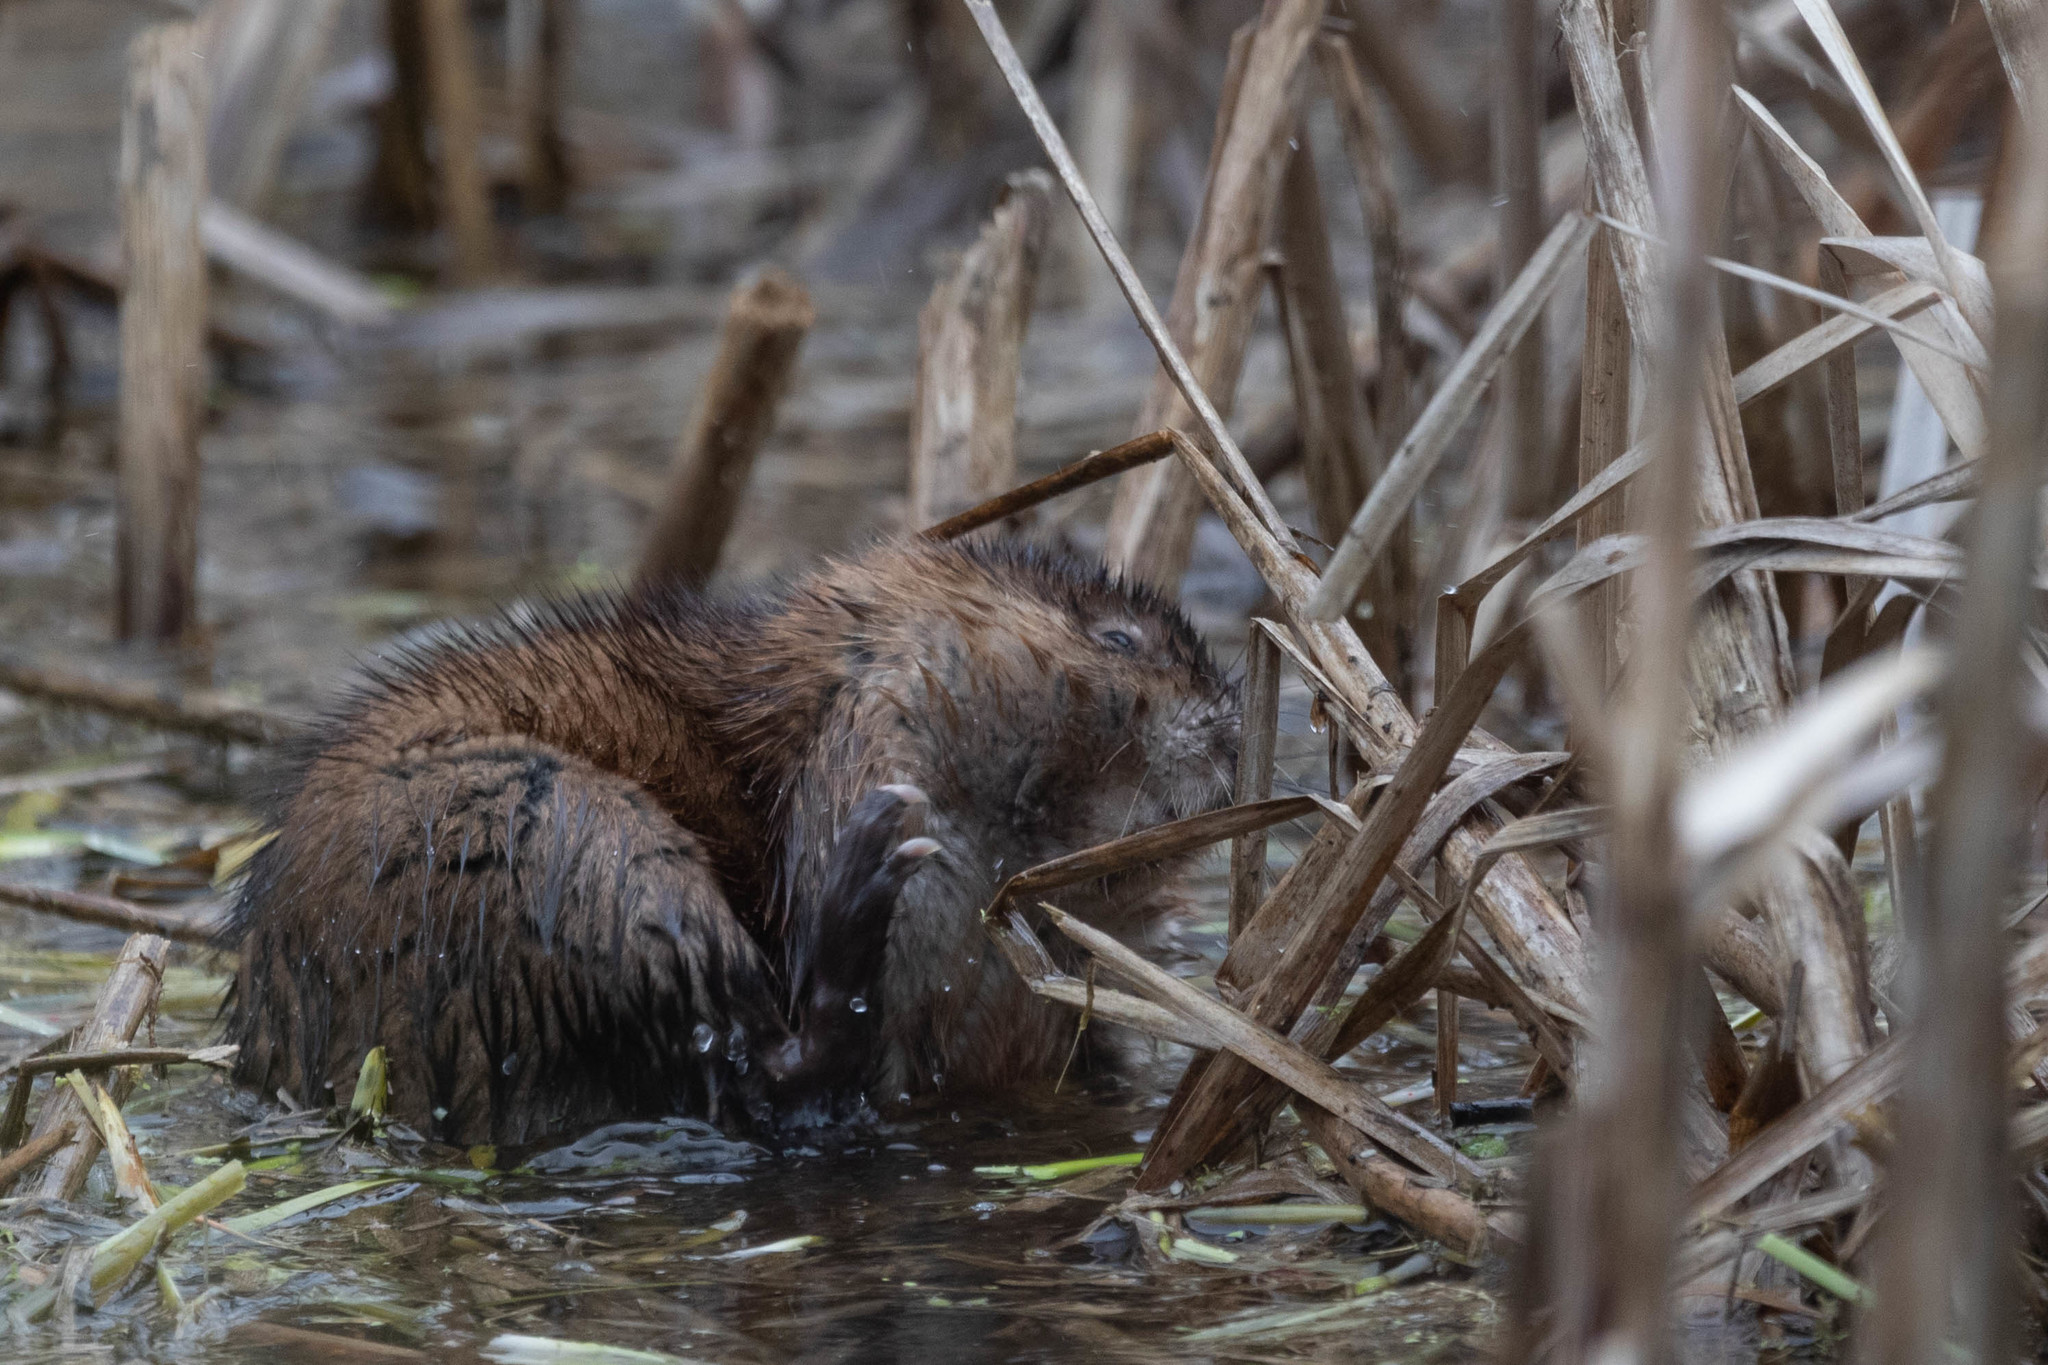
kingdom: Animalia
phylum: Chordata
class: Mammalia
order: Rodentia
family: Cricetidae
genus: Ondatra
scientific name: Ondatra zibethicus
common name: Muskrat
